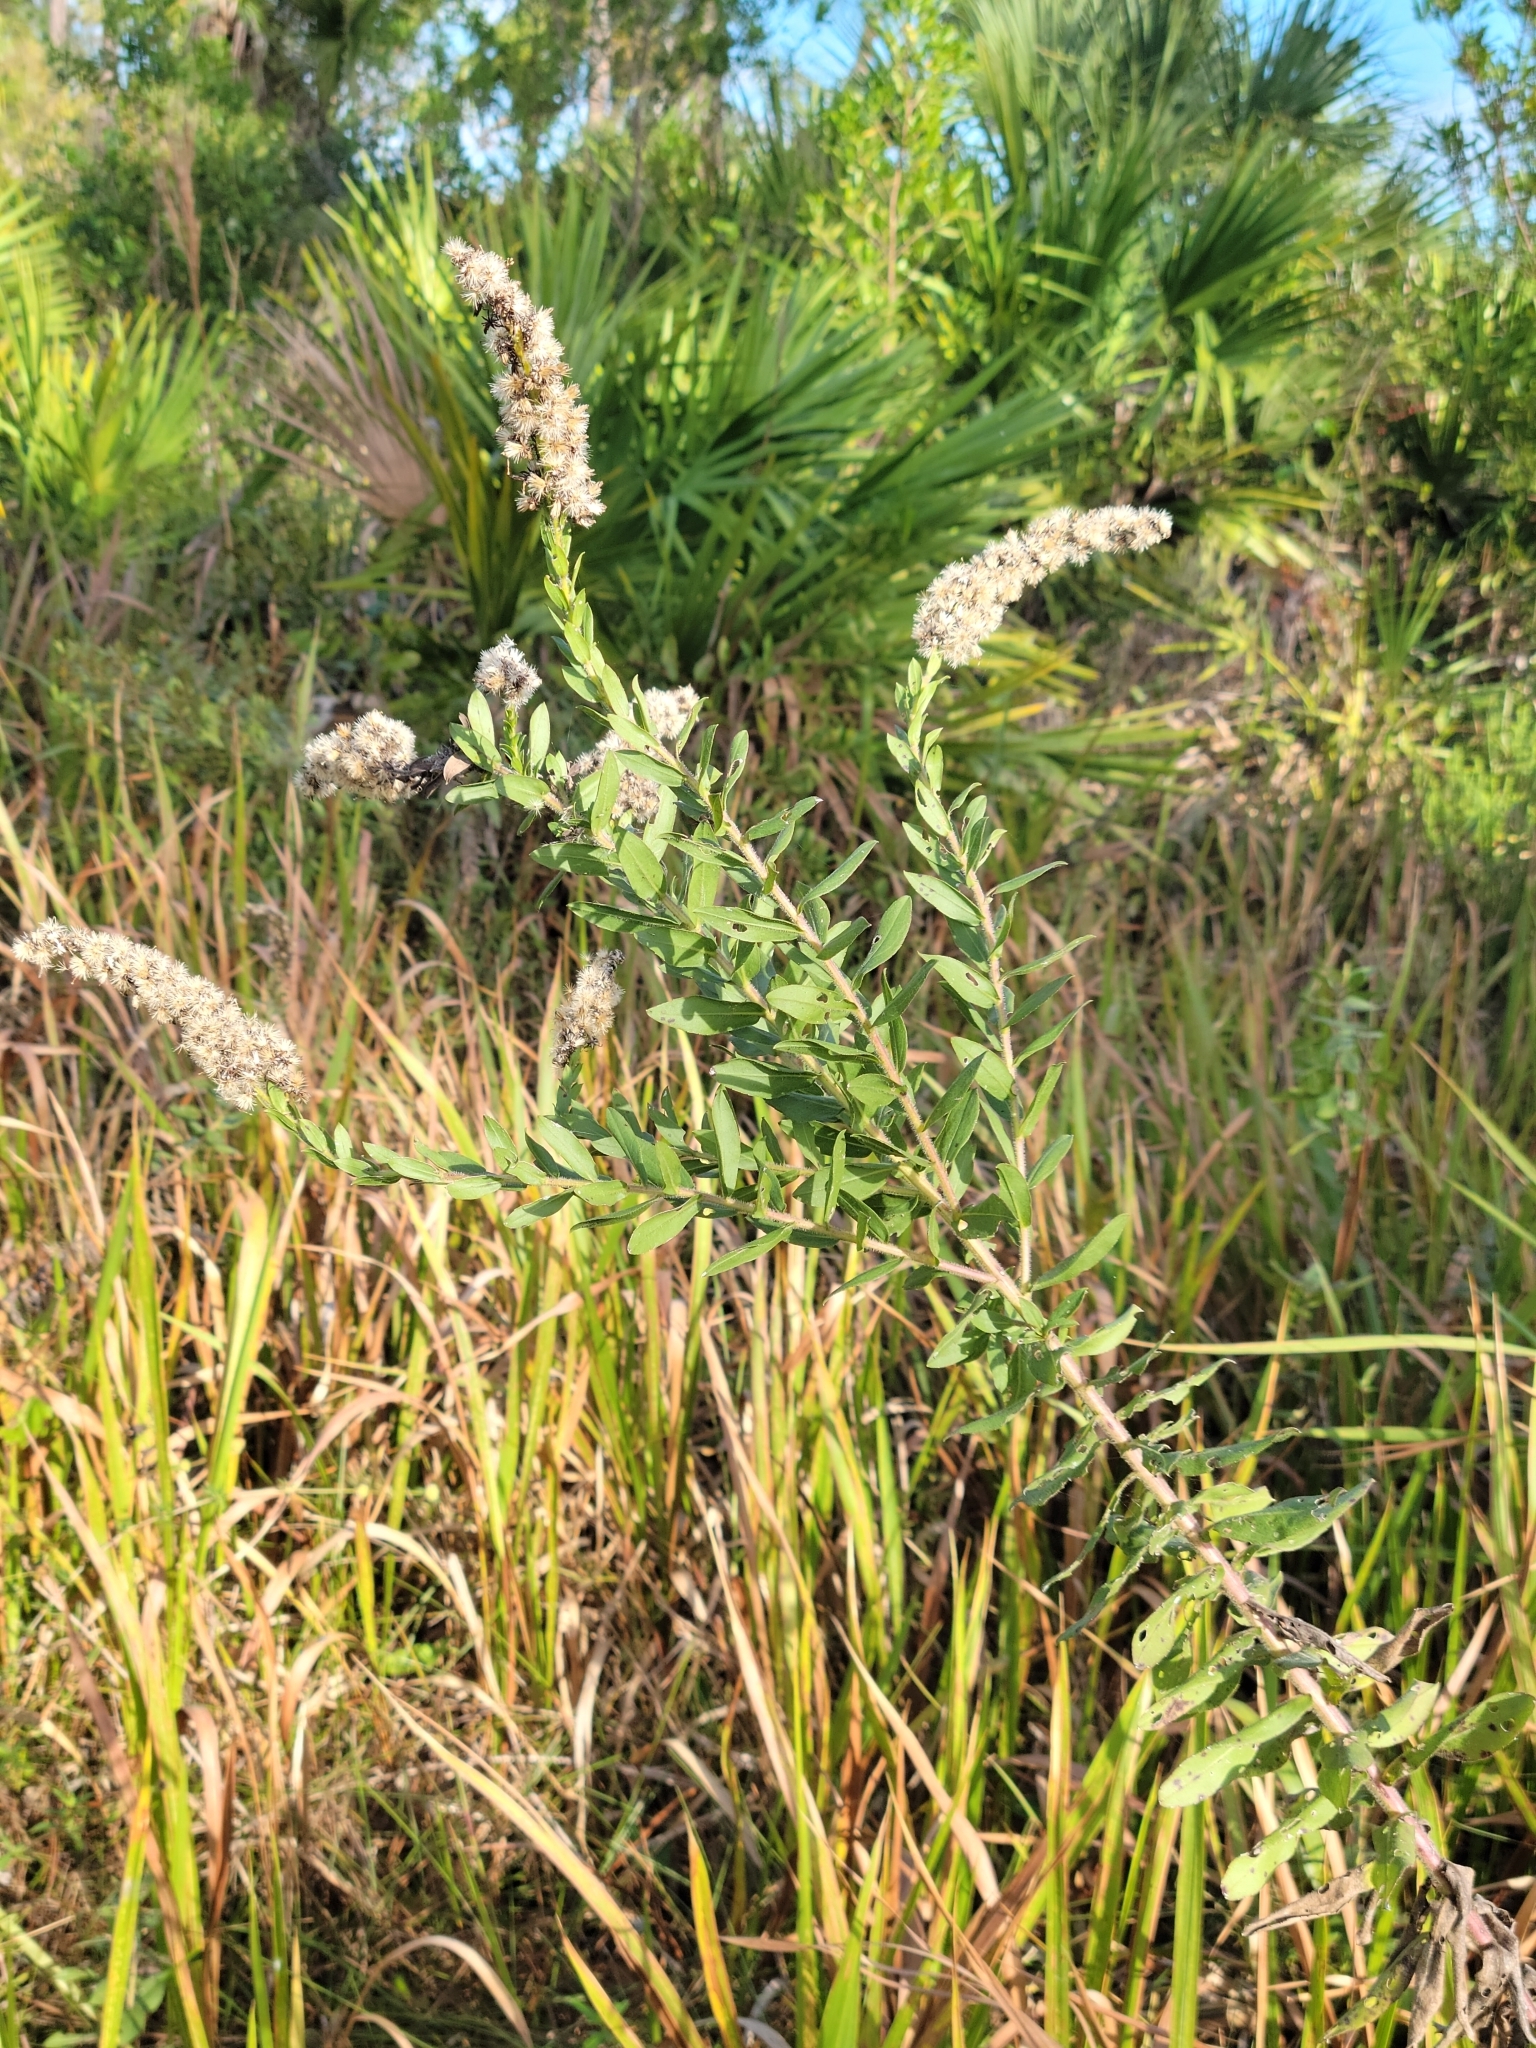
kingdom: Plantae
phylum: Tracheophyta
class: Magnoliopsida
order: Asterales
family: Asteraceae
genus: Solidago
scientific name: Solidago fistulosa
